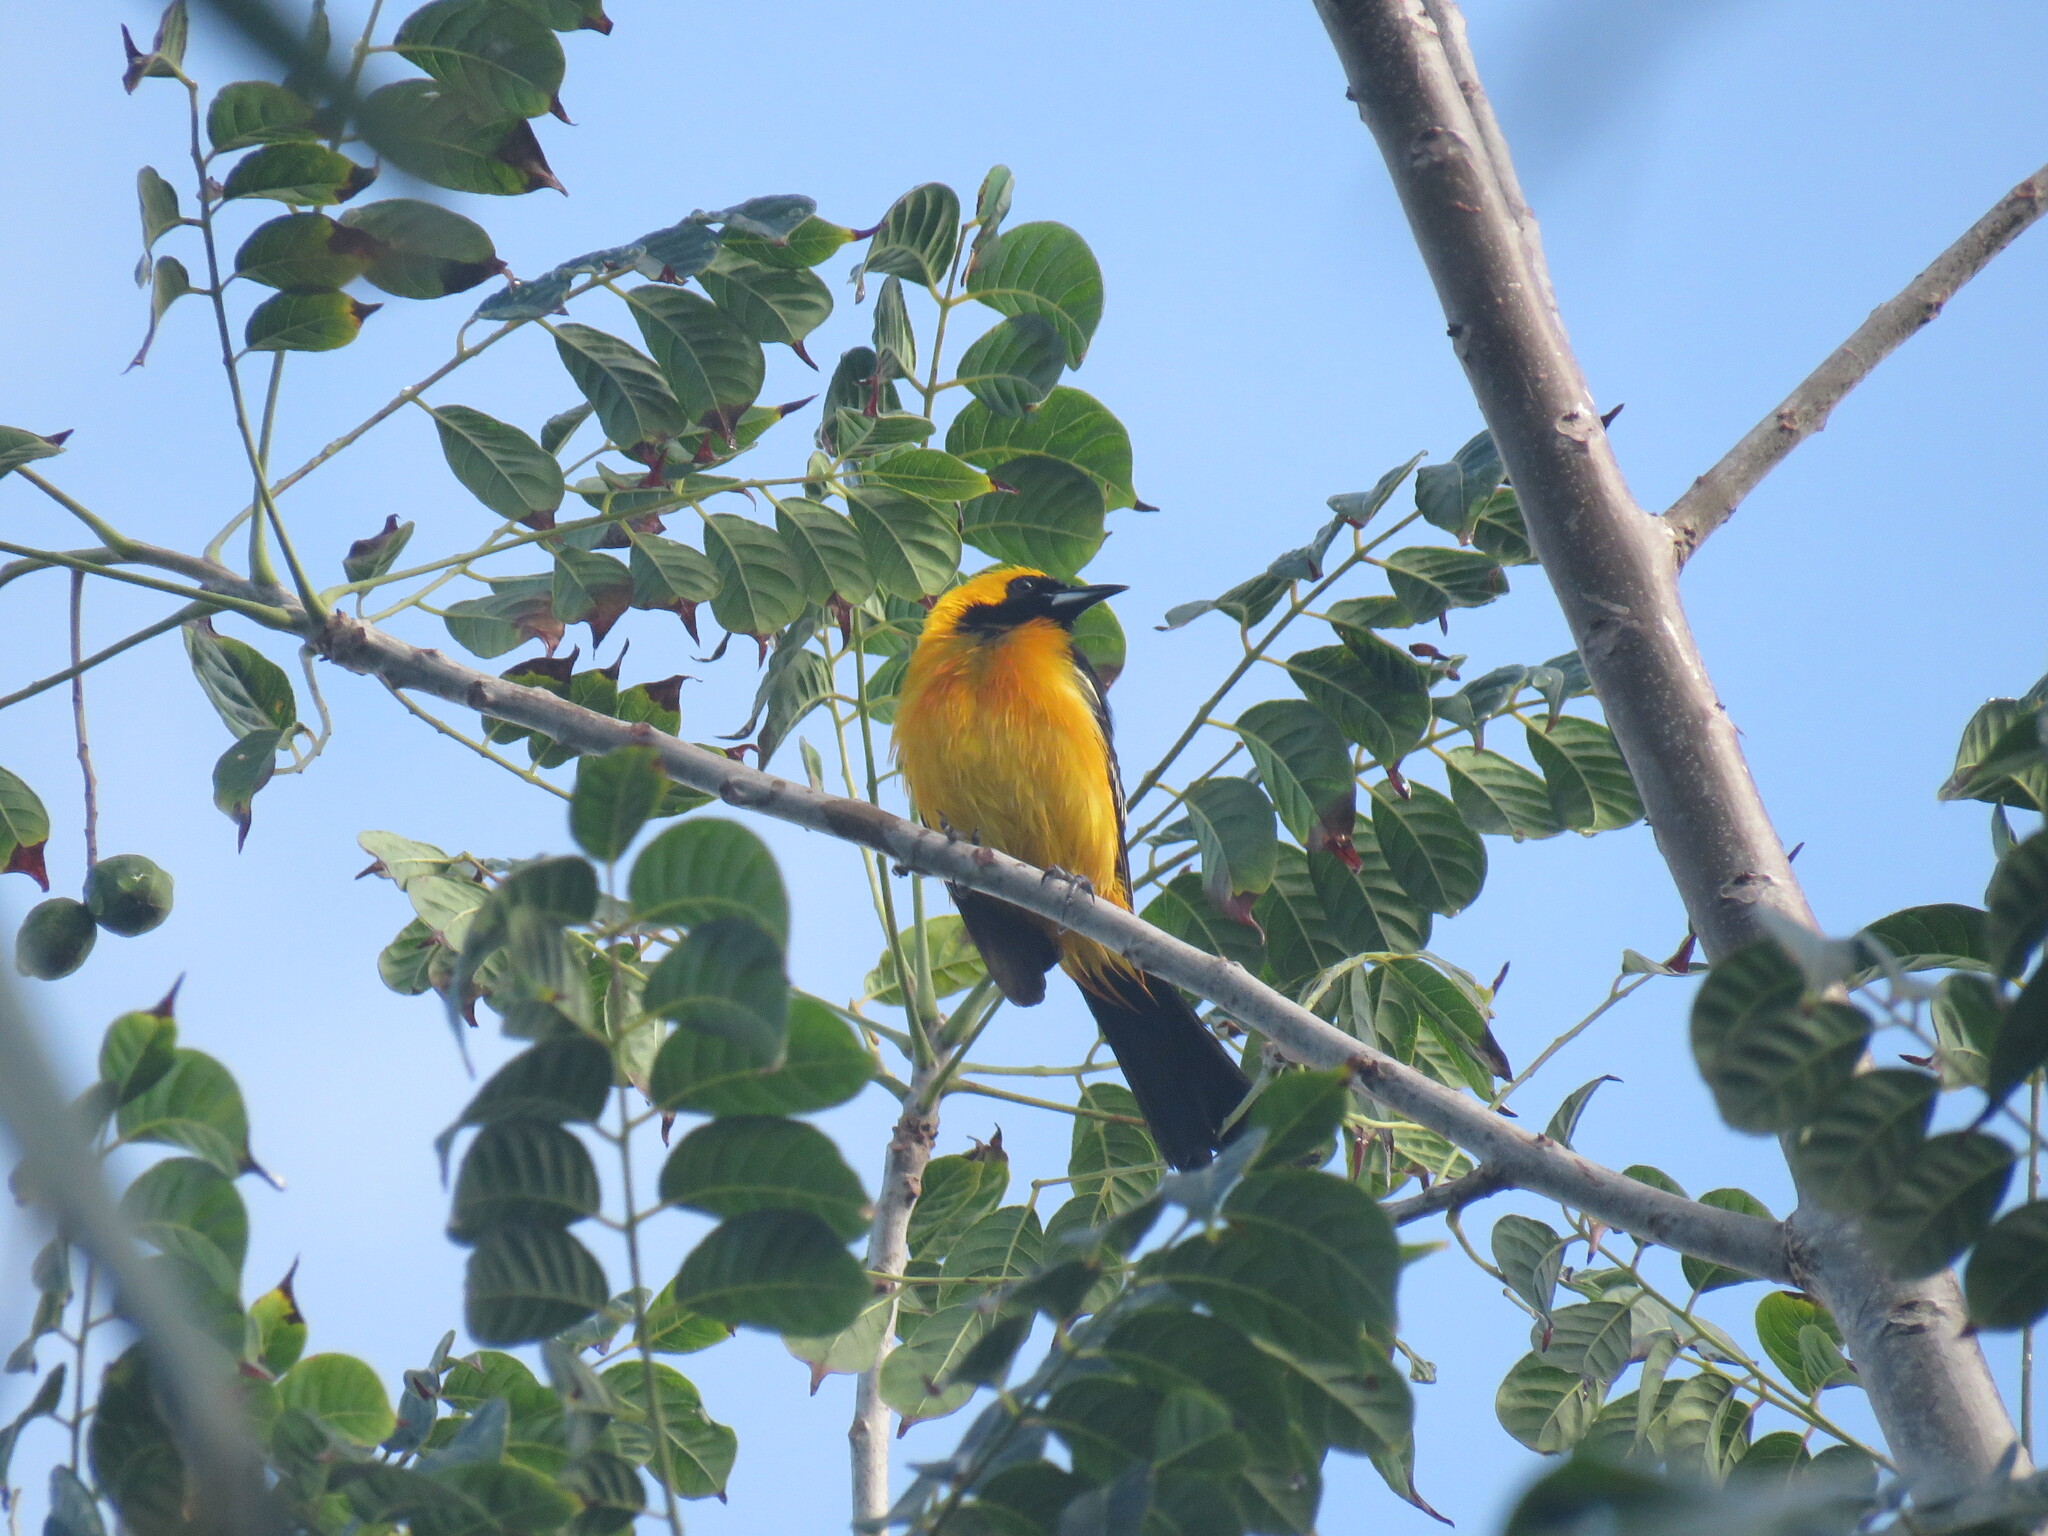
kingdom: Animalia
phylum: Chordata
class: Aves
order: Passeriformes
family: Icteridae
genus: Icterus
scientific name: Icterus cucullatus
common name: Hooded oriole
